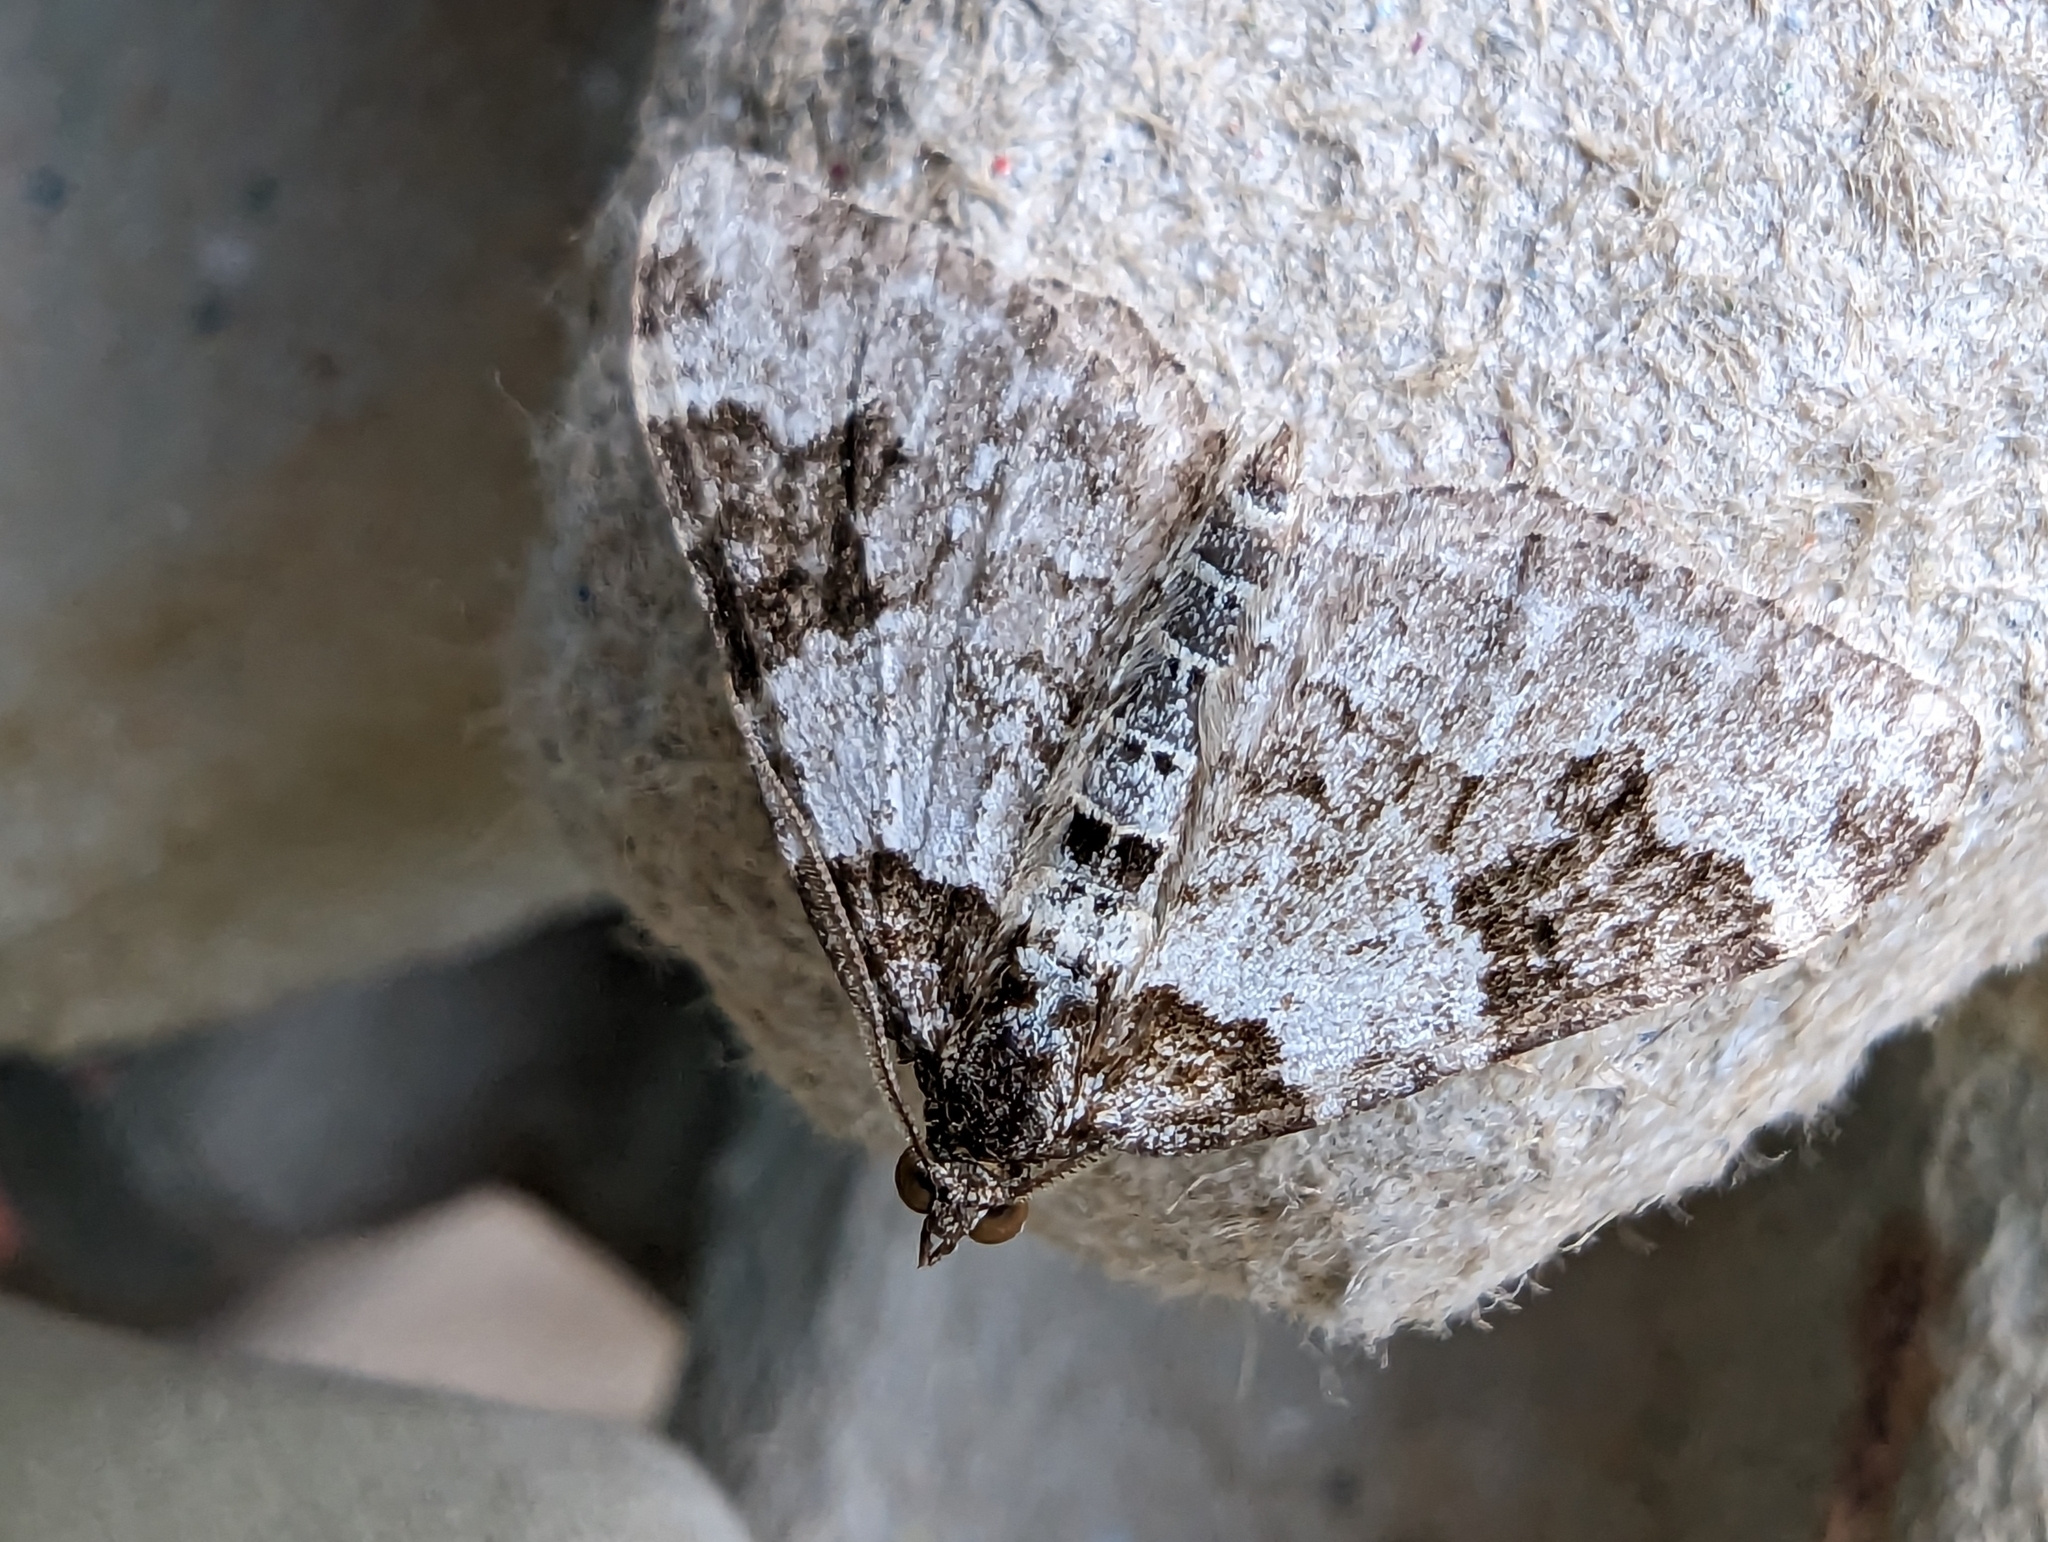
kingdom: Animalia
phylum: Arthropoda
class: Insecta
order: Lepidoptera
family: Geometridae
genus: Xanthorhoe
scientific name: Xanthorhoe fluctuata
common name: Garden carpet
